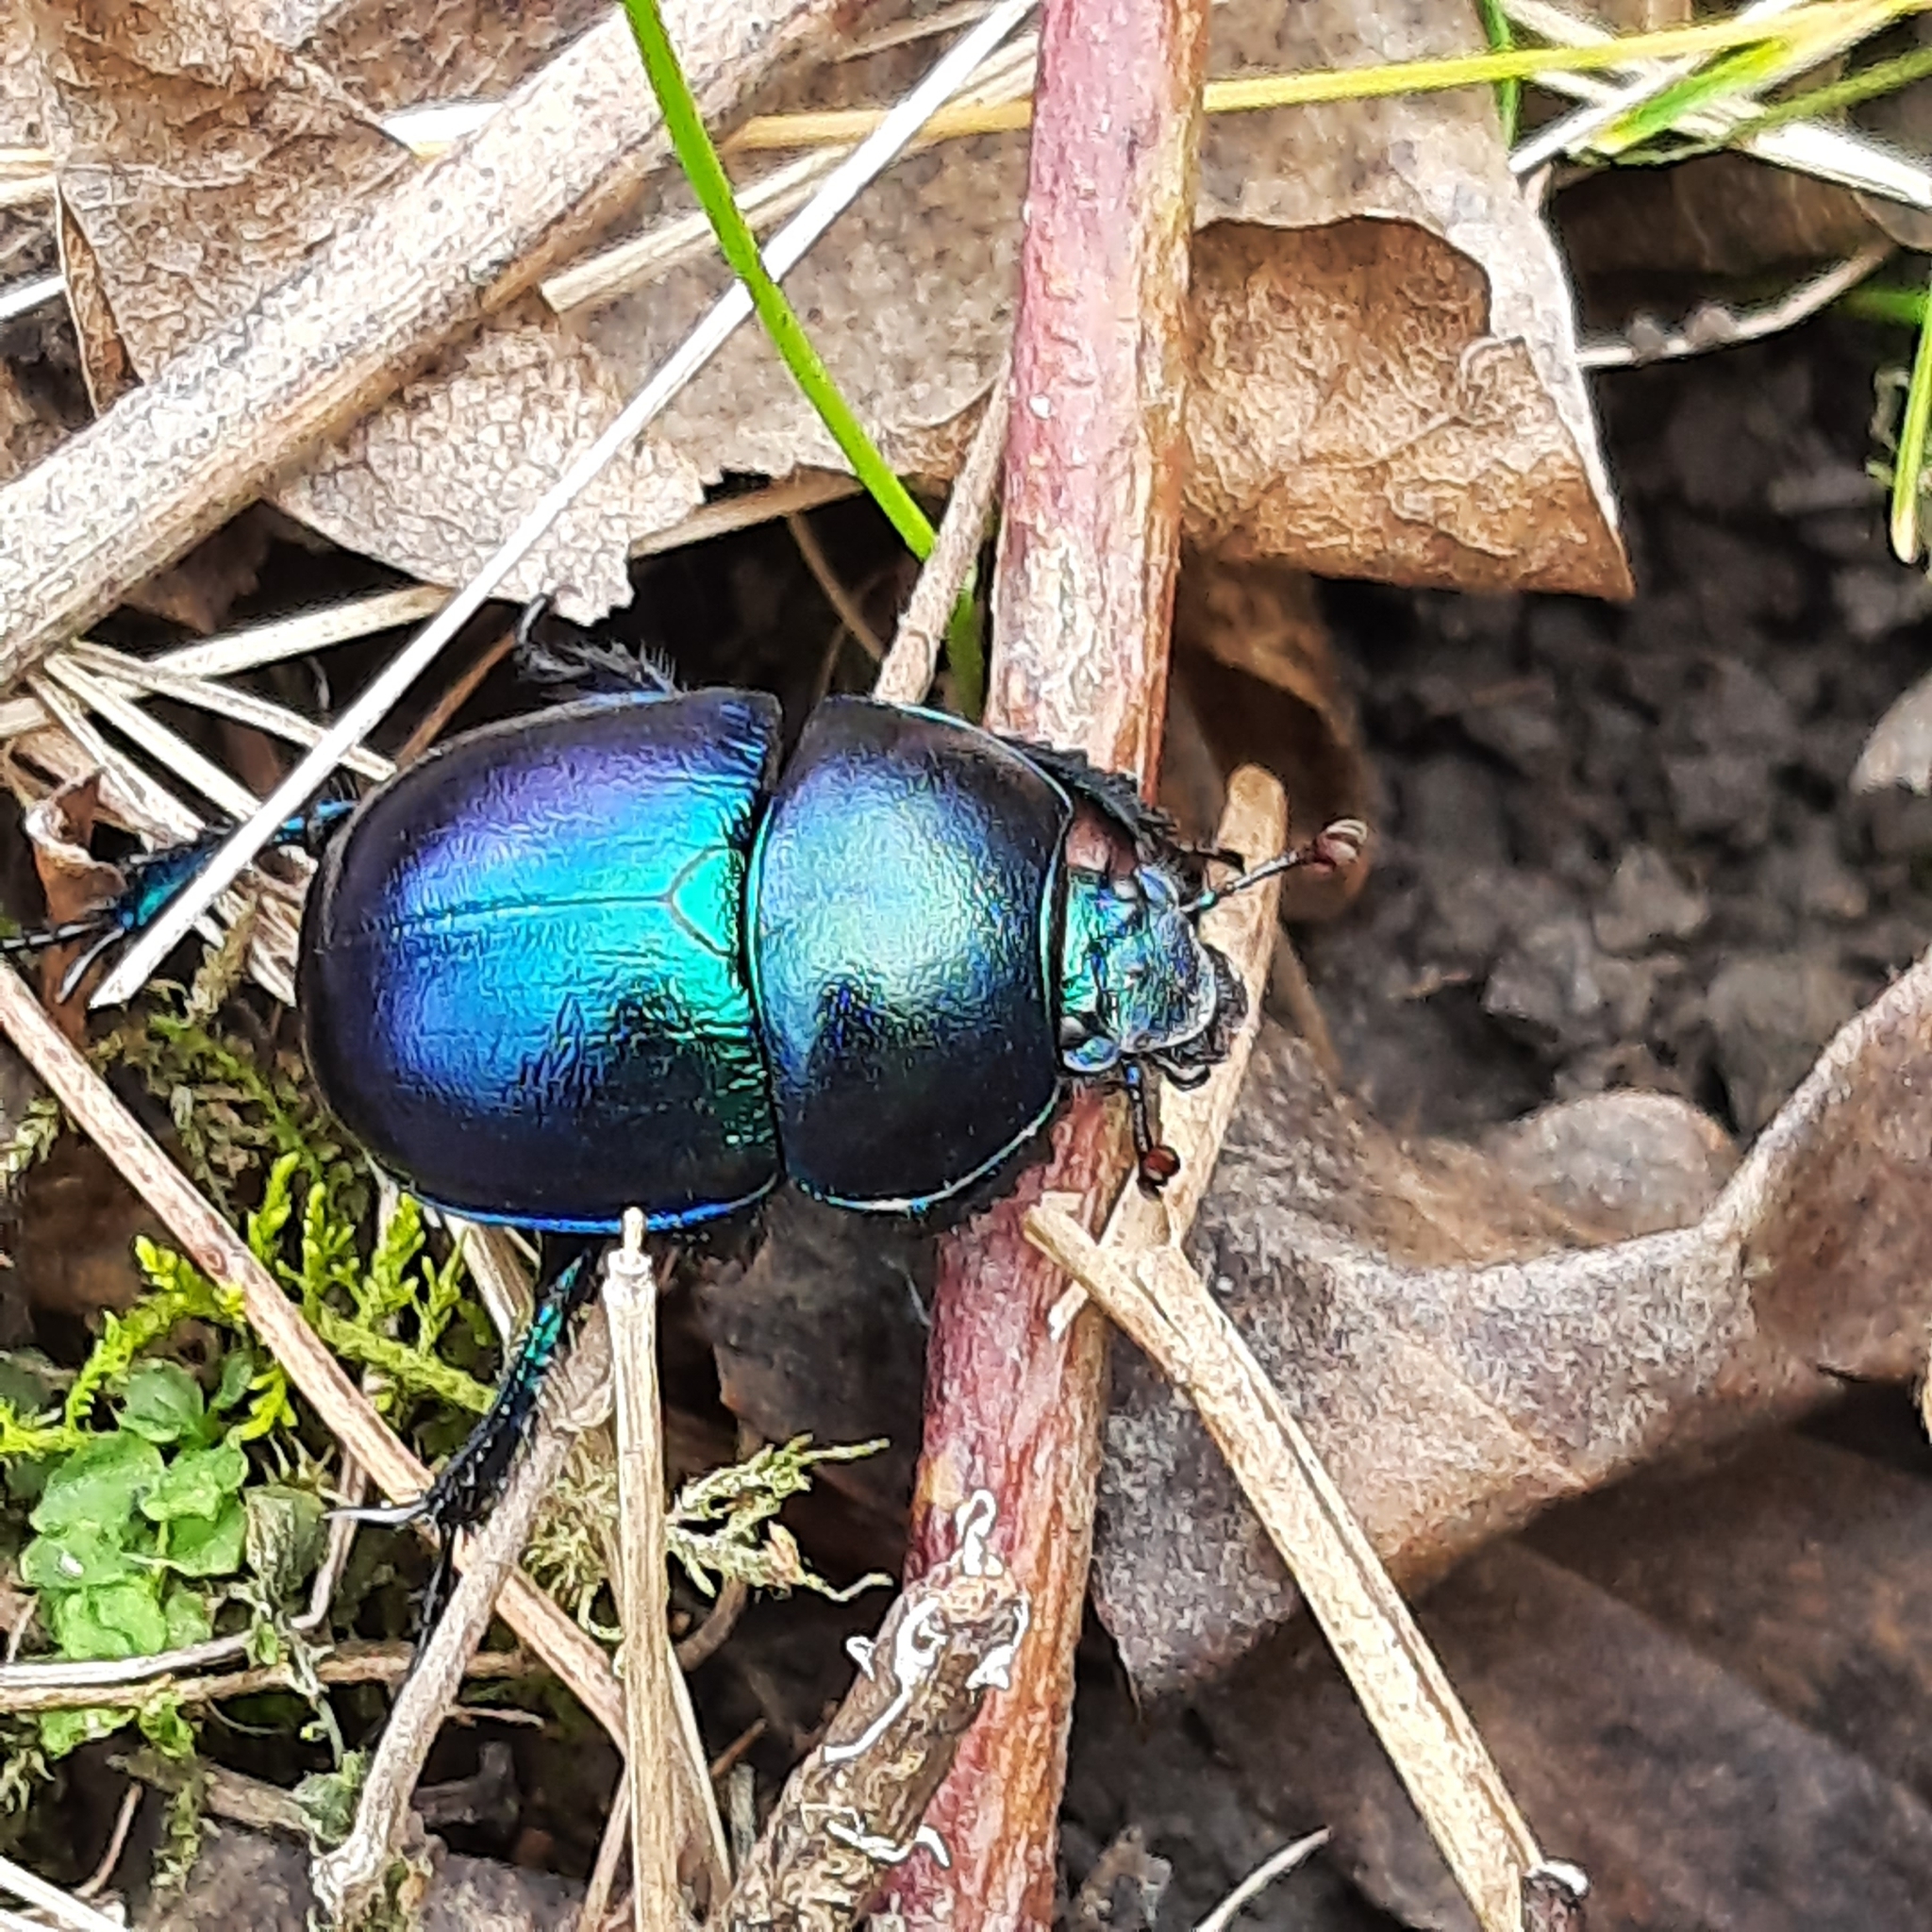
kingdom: Animalia
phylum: Arthropoda
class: Insecta
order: Coleoptera
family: Geotrupidae
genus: Trypocopris
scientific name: Trypocopris vernalis
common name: Spring dumbledor
